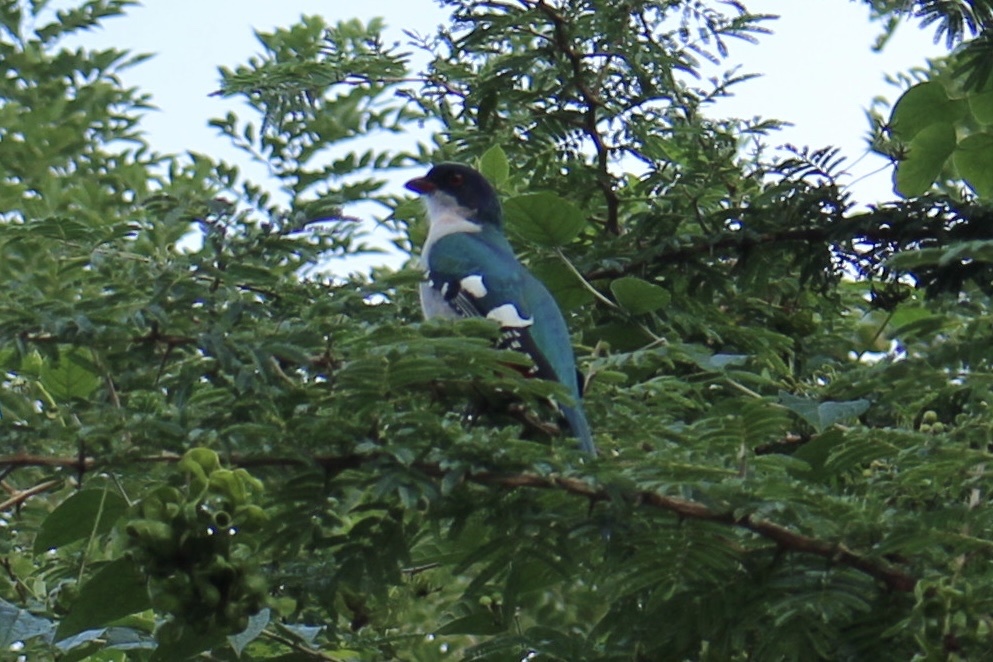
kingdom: Animalia
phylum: Chordata
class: Aves
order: Trogoniformes
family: Trogonidae
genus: Priotelus
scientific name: Priotelus temnurus
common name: Cuban trogon
